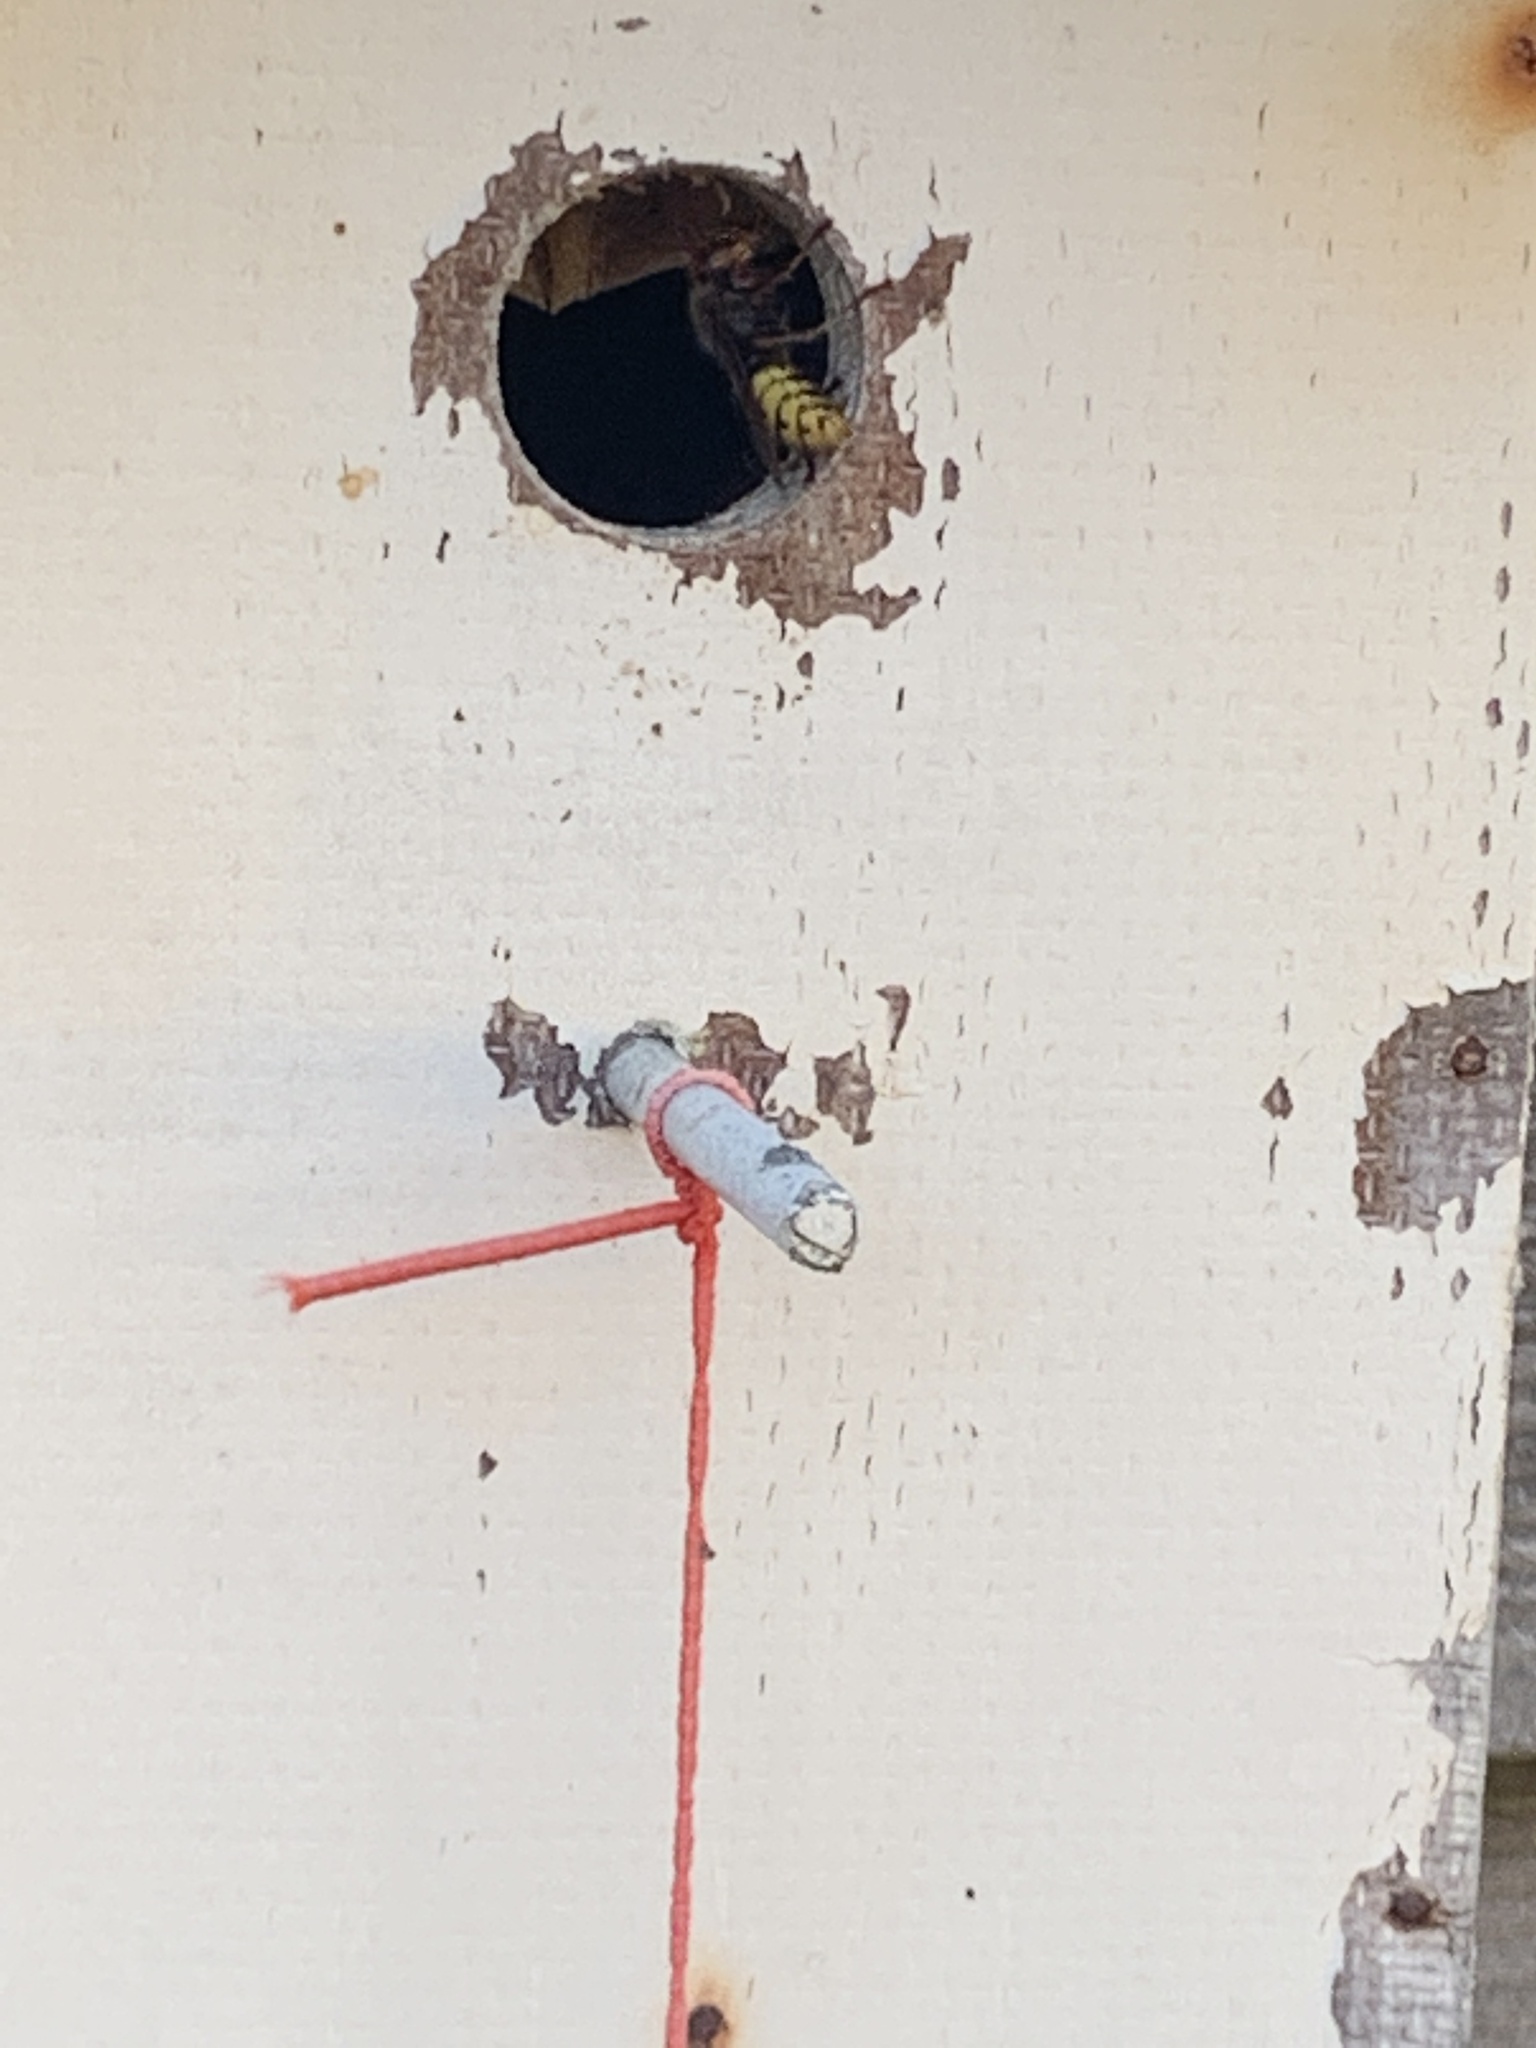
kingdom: Animalia
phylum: Arthropoda
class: Insecta
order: Hymenoptera
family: Vespidae
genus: Vespa
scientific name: Vespa crabro
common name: Hornet
